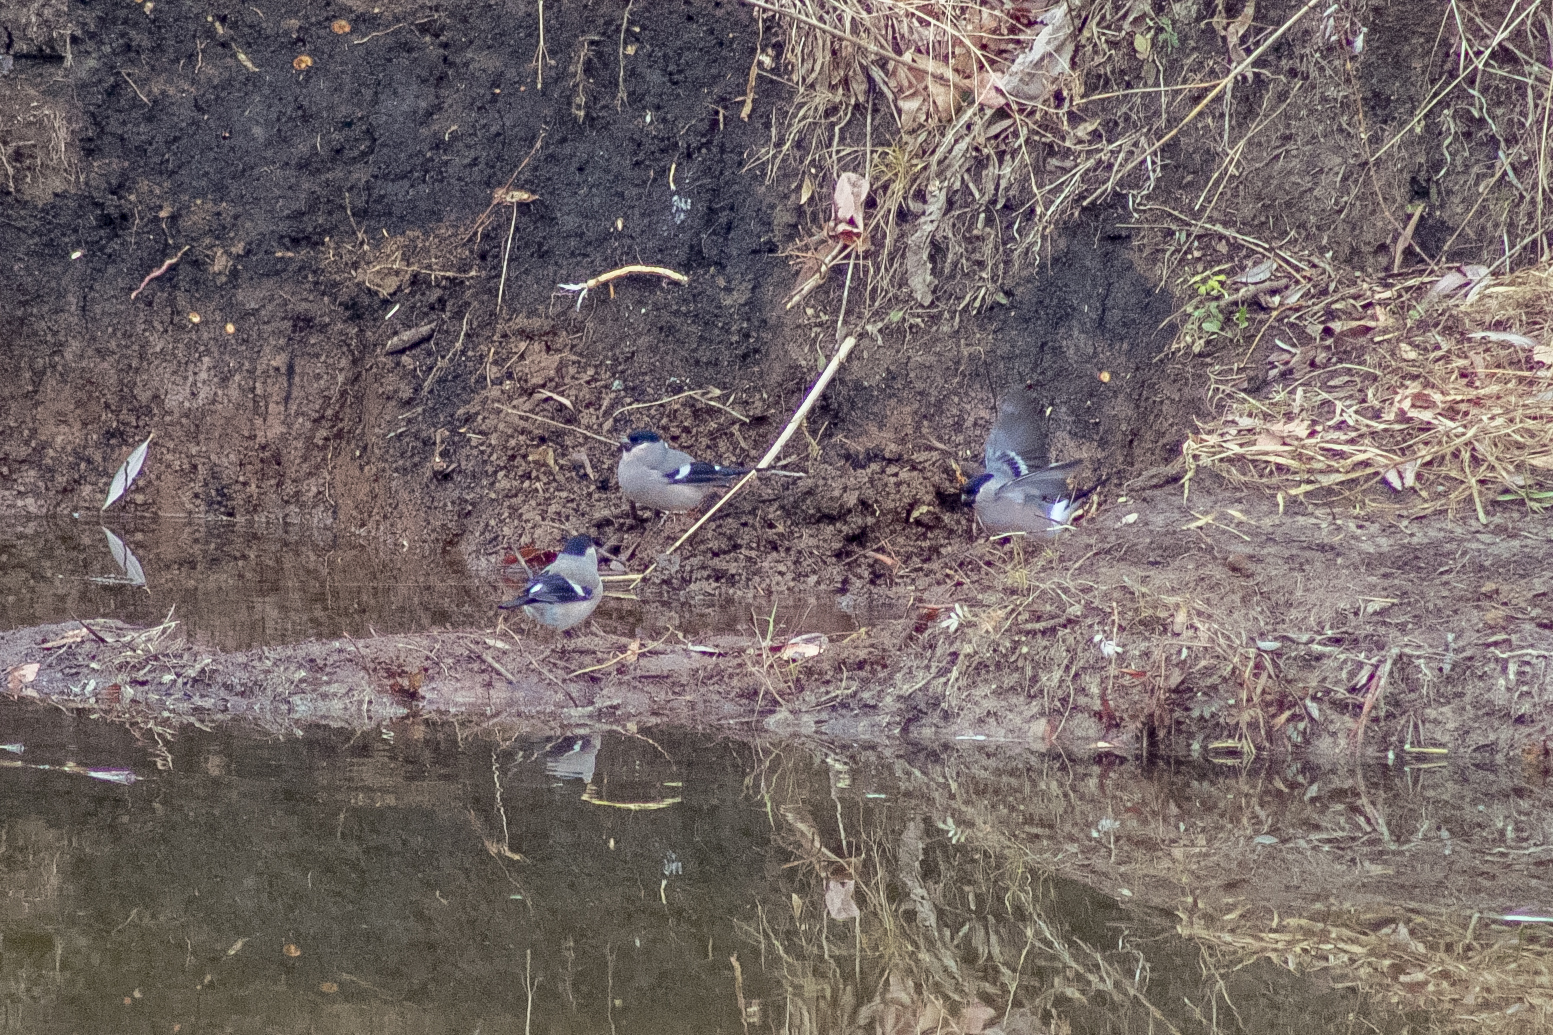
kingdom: Animalia
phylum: Chordata
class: Aves
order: Passeriformes
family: Fringillidae
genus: Pyrrhula
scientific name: Pyrrhula pyrrhula
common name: Eurasian bullfinch
